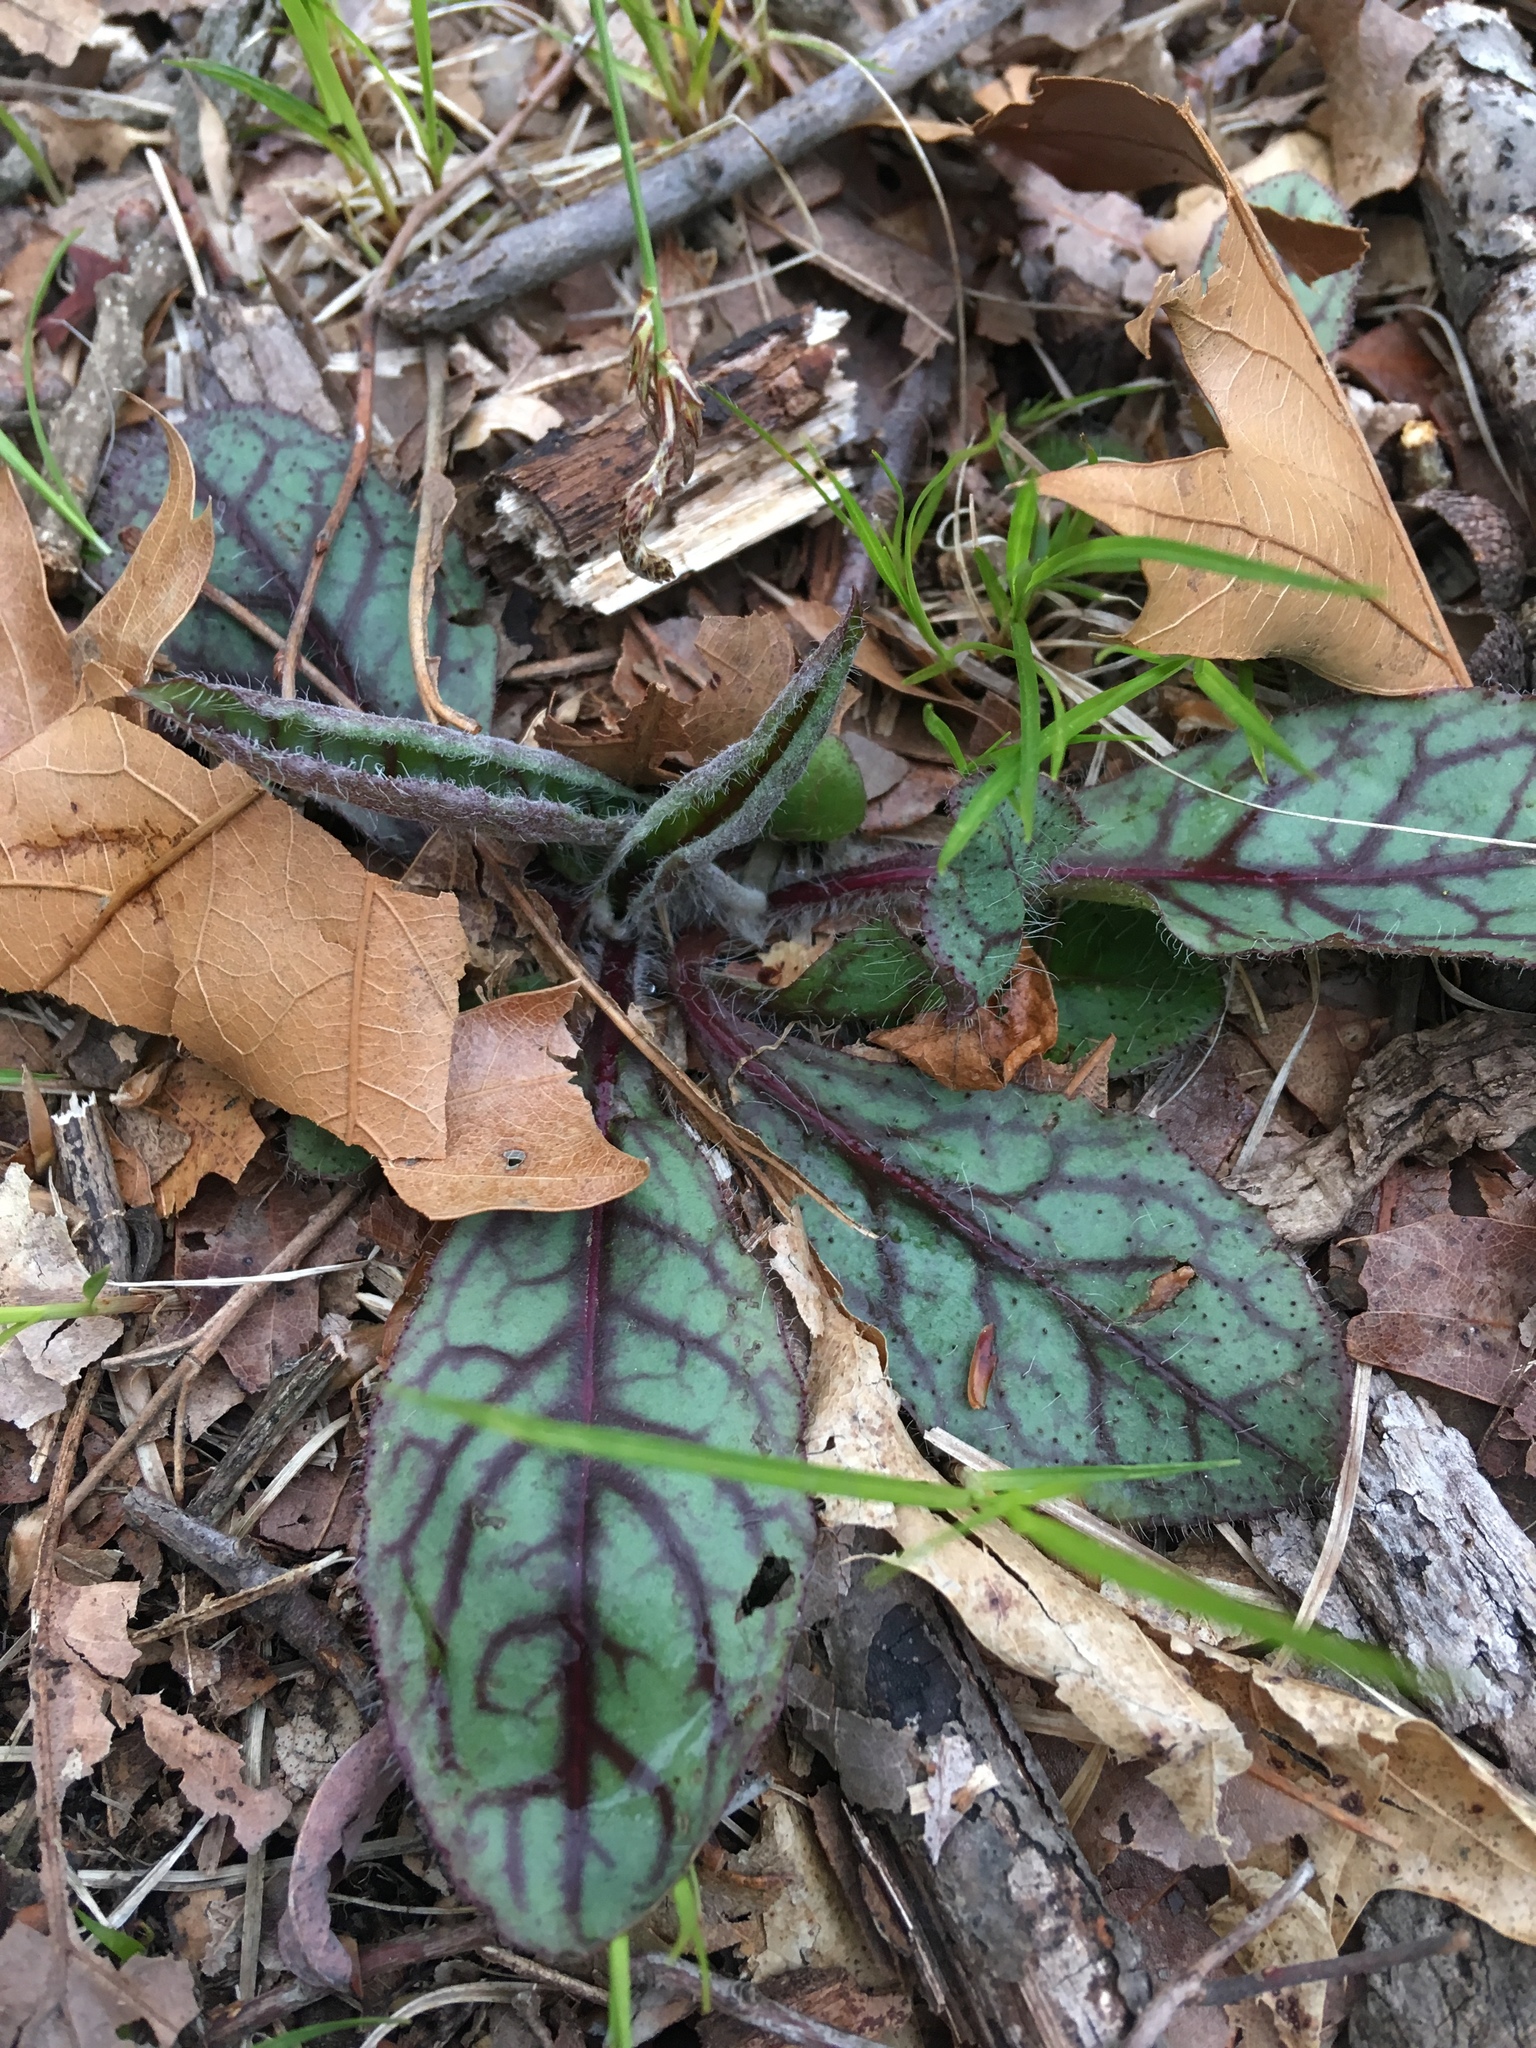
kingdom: Plantae
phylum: Tracheophyta
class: Magnoliopsida
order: Asterales
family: Asteraceae
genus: Hieracium
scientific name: Hieracium venosum
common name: Rattlesnake hawkweed
